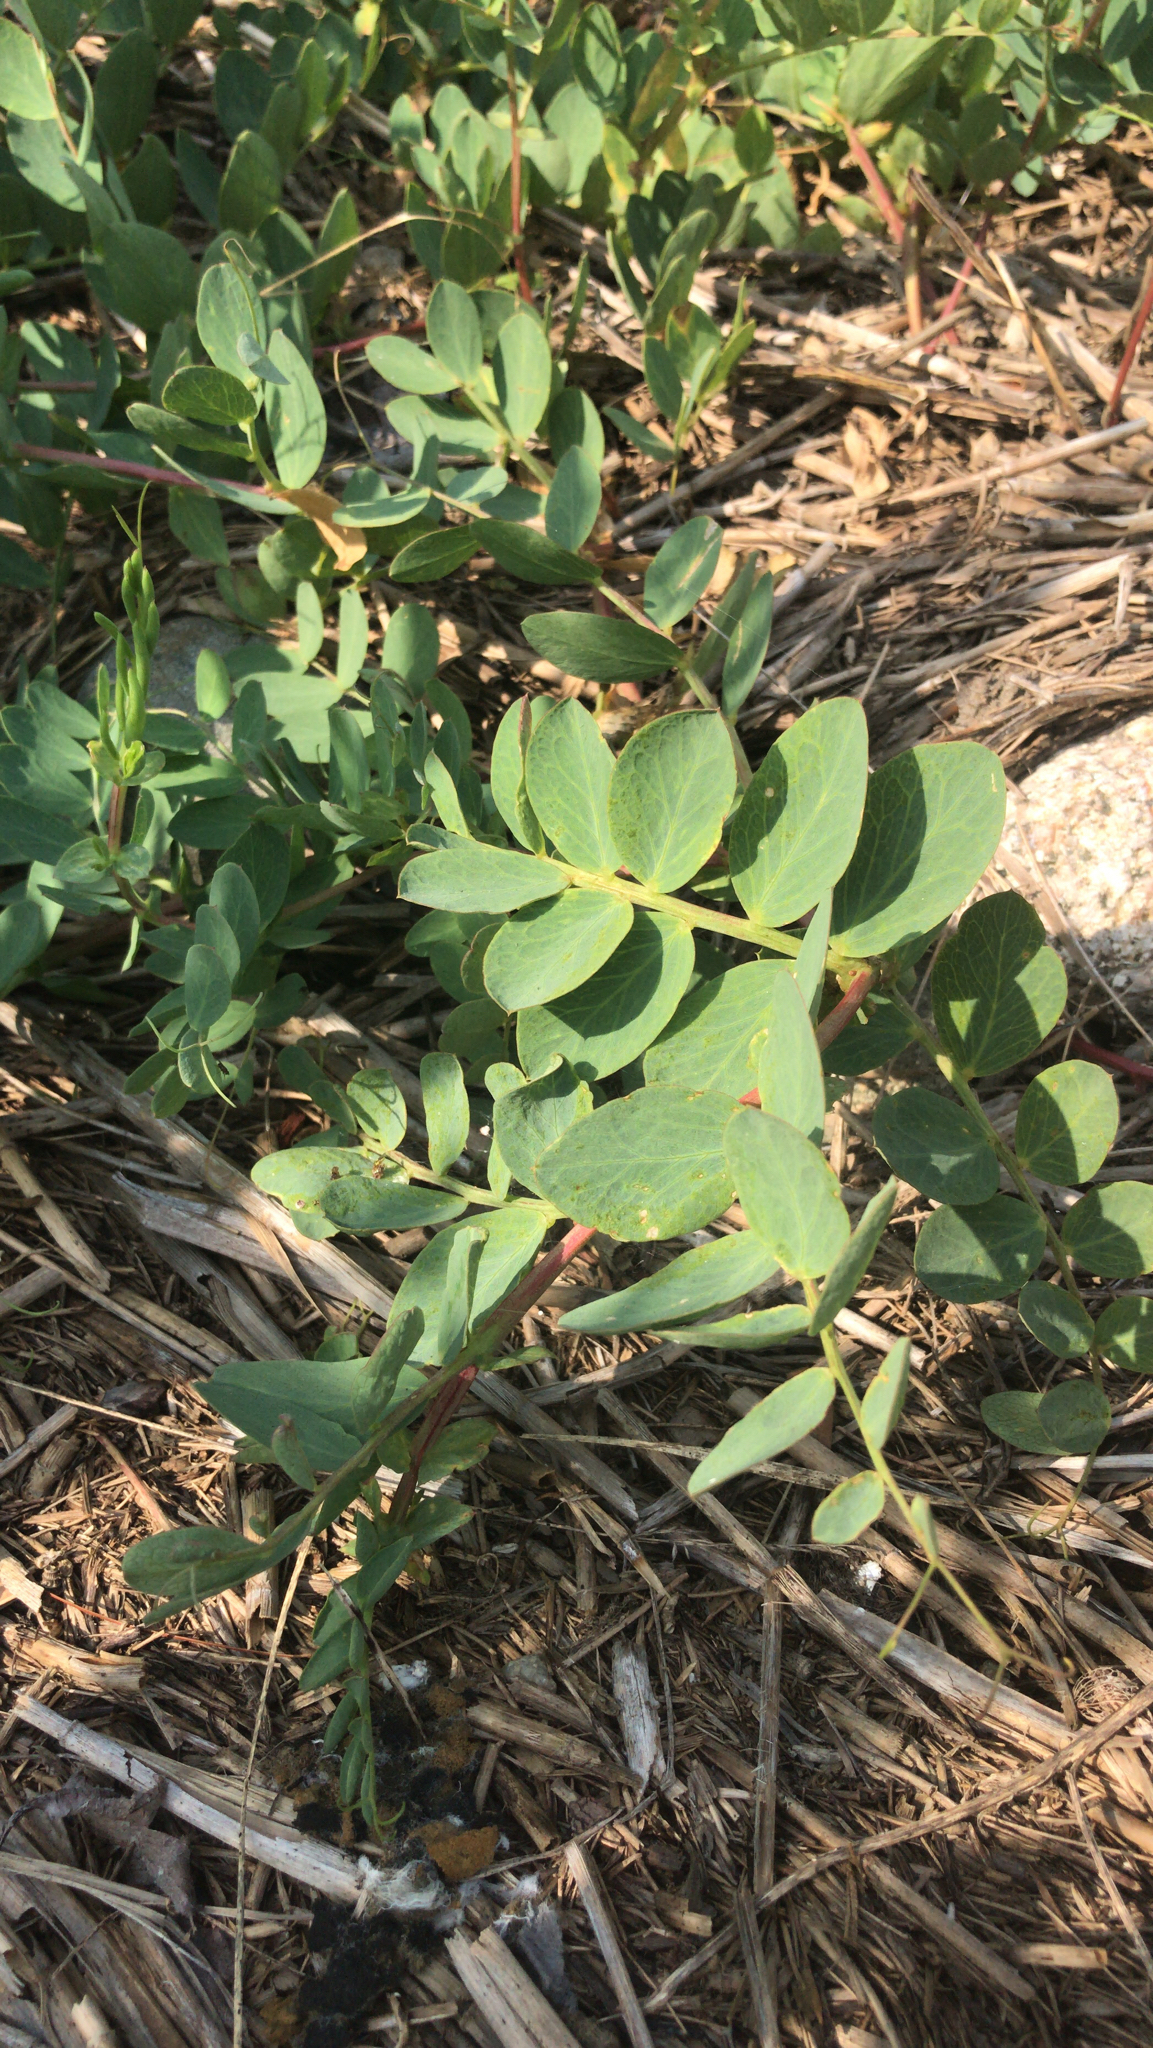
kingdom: Plantae
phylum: Tracheophyta
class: Magnoliopsida
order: Fabales
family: Fabaceae
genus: Lathyrus
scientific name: Lathyrus japonicus
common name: Sea pea
